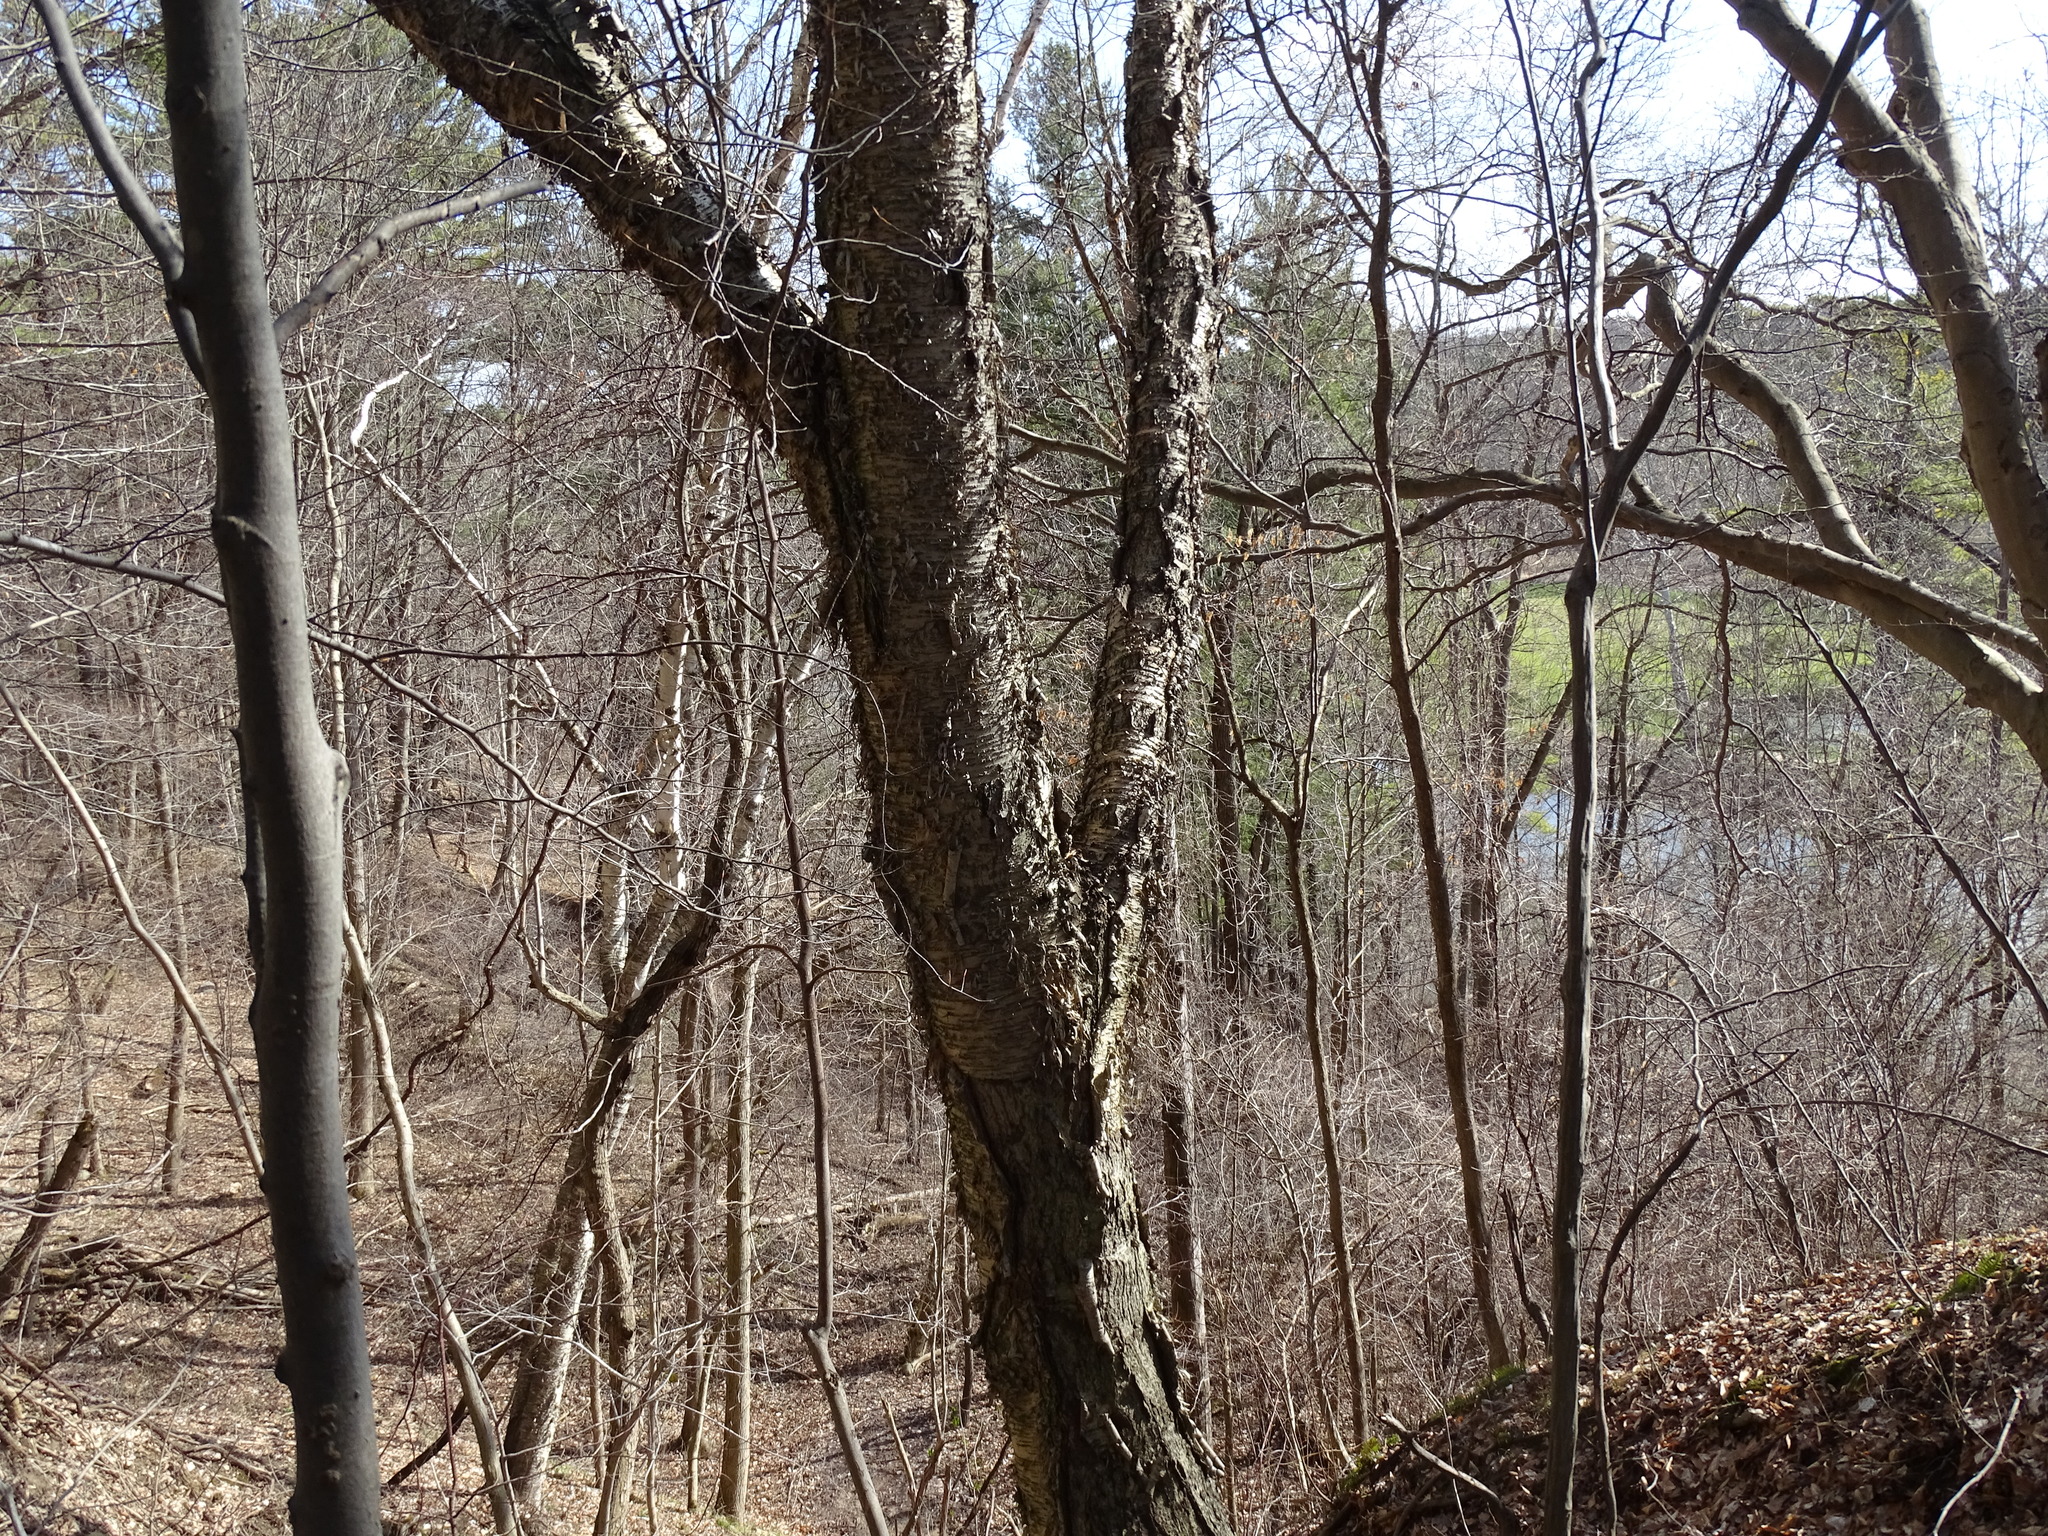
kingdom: Plantae
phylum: Tracheophyta
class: Magnoliopsida
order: Fagales
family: Betulaceae
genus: Betula
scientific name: Betula alleghaniensis
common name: Yellow birch
